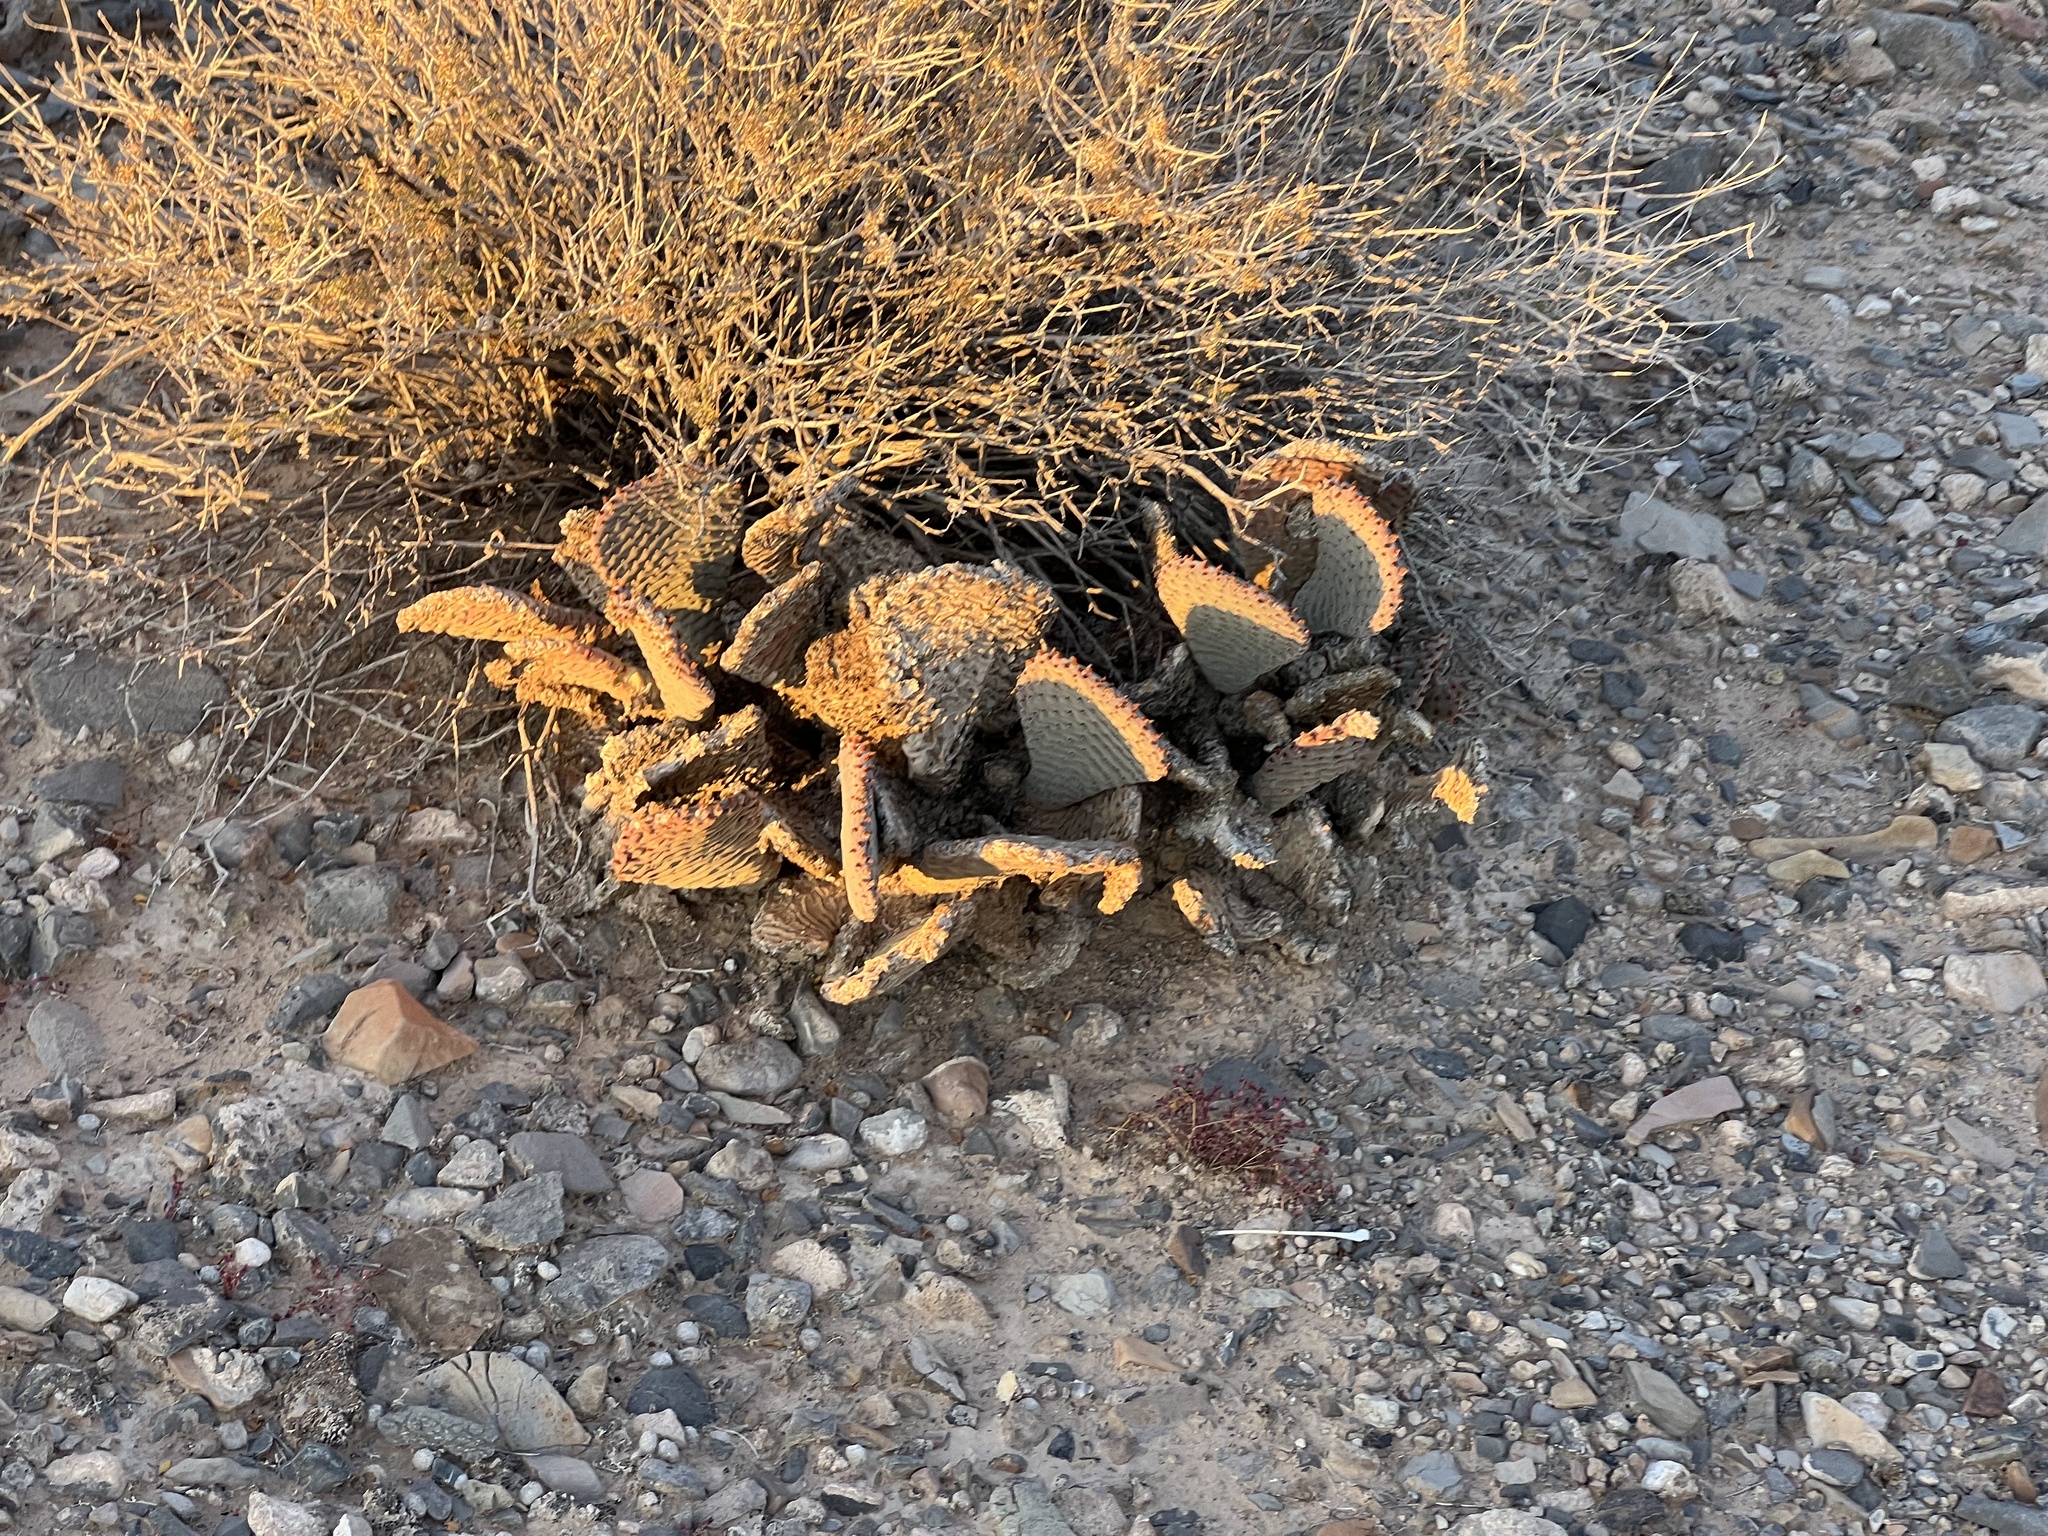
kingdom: Plantae
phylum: Tracheophyta
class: Magnoliopsida
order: Caryophyllales
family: Cactaceae
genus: Opuntia
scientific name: Opuntia basilaris
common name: Beavertail prickly-pear
